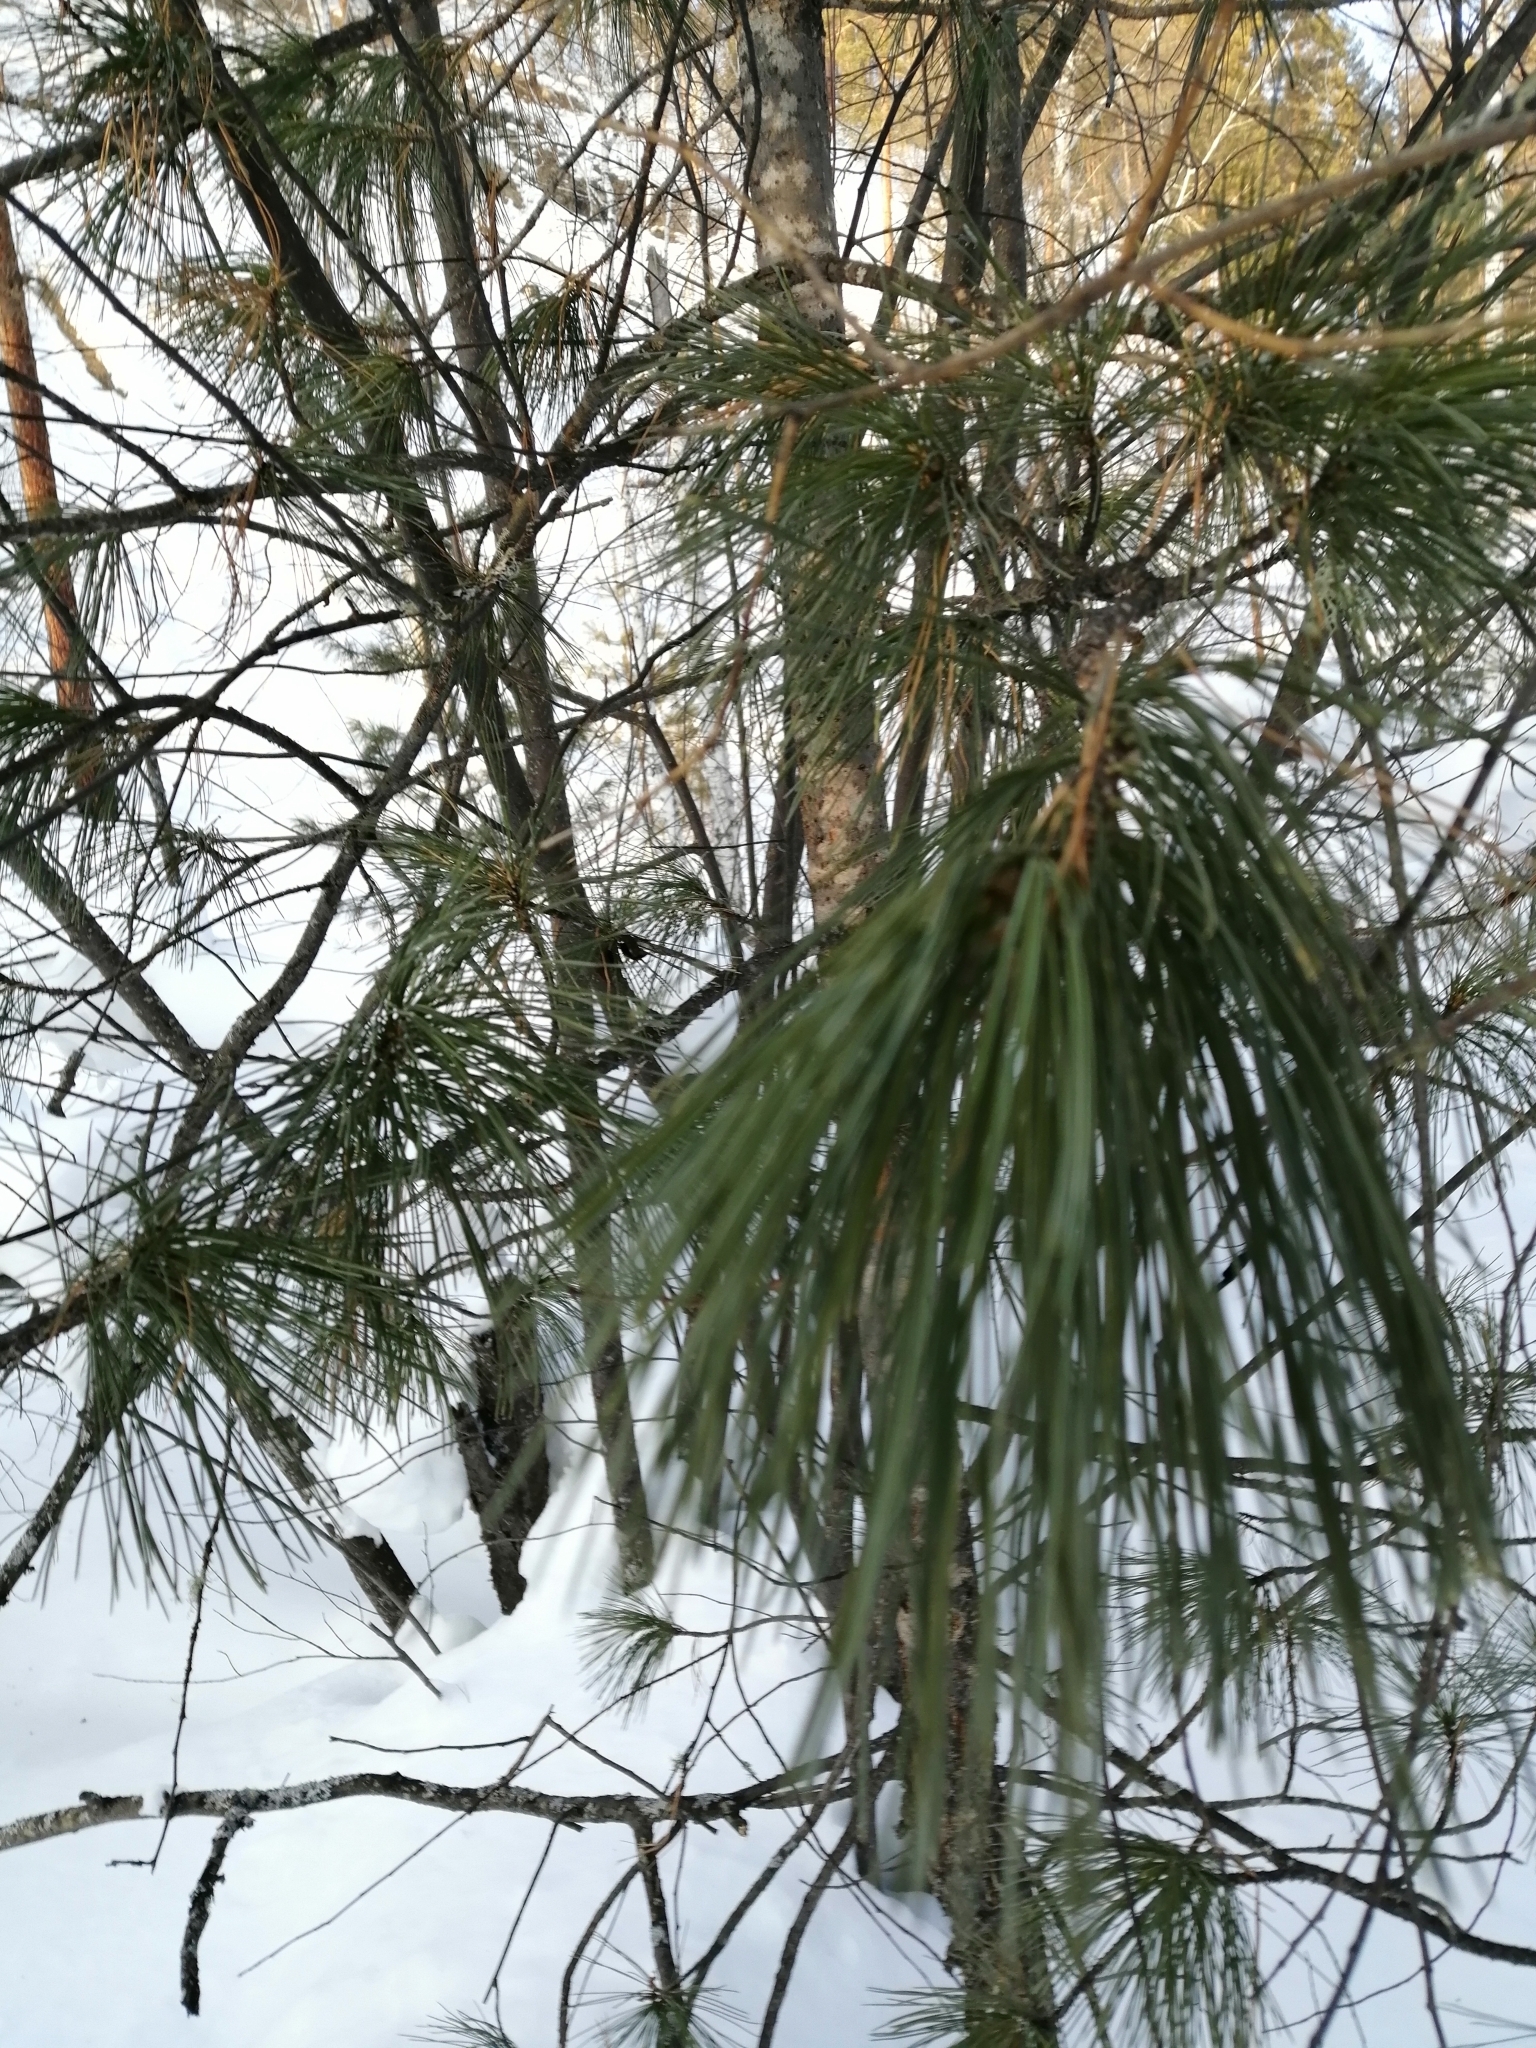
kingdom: Plantae
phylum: Tracheophyta
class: Pinopsida
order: Pinales
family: Pinaceae
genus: Pinus
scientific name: Pinus sibirica
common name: Siberian pine
